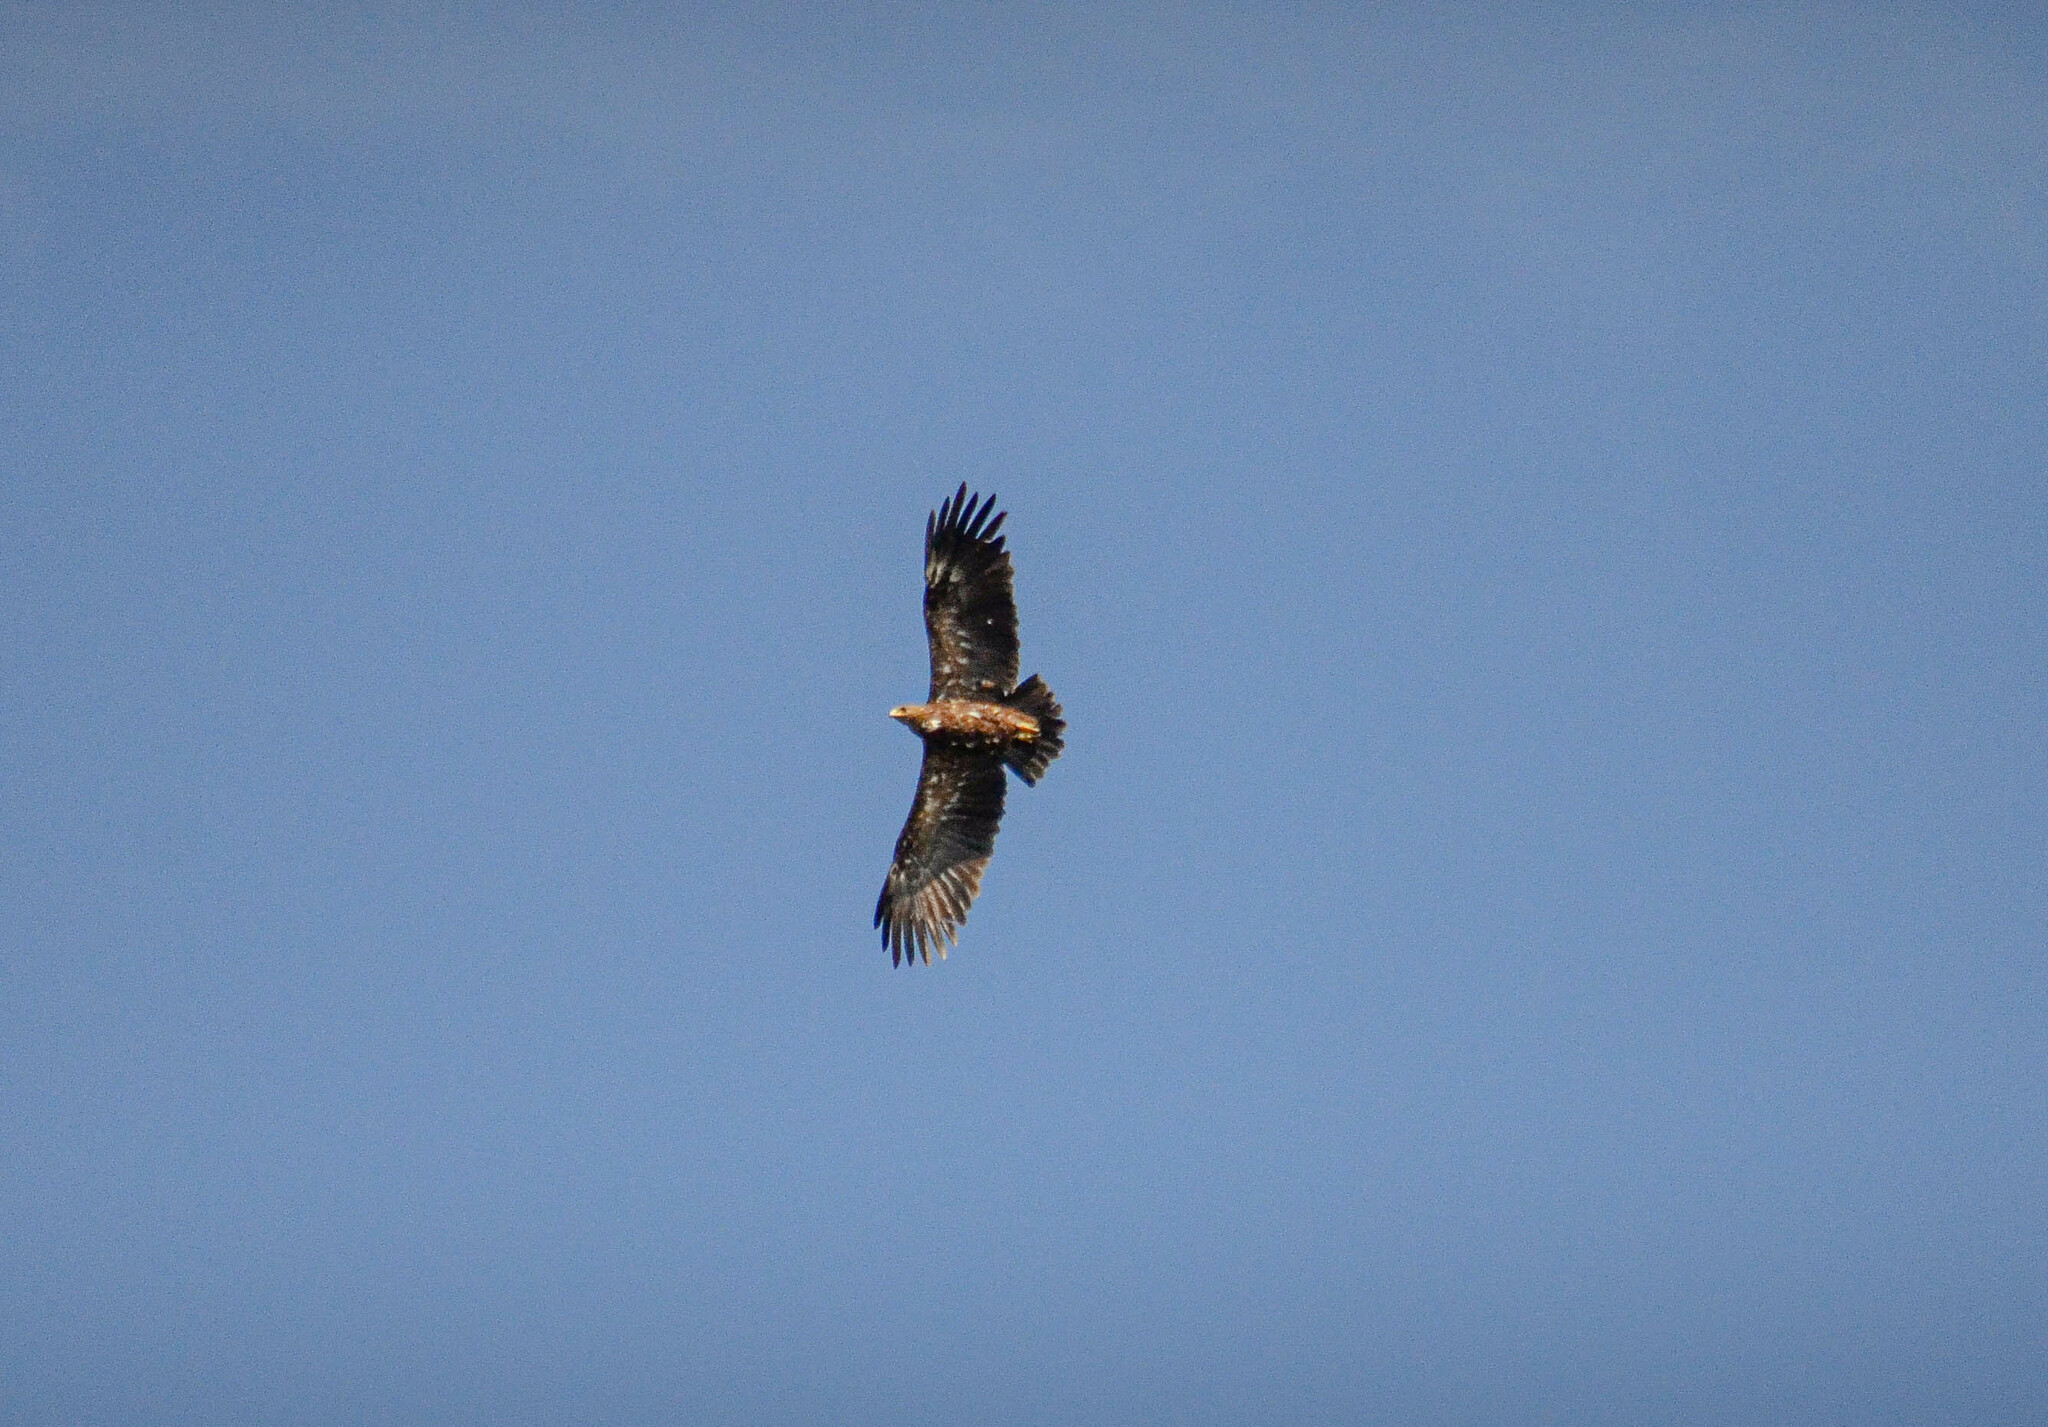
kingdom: Animalia
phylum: Chordata
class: Aves
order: Accipitriformes
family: Accipitridae
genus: Aquila
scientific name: Aquila clanga
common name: Greater spotted eagle
